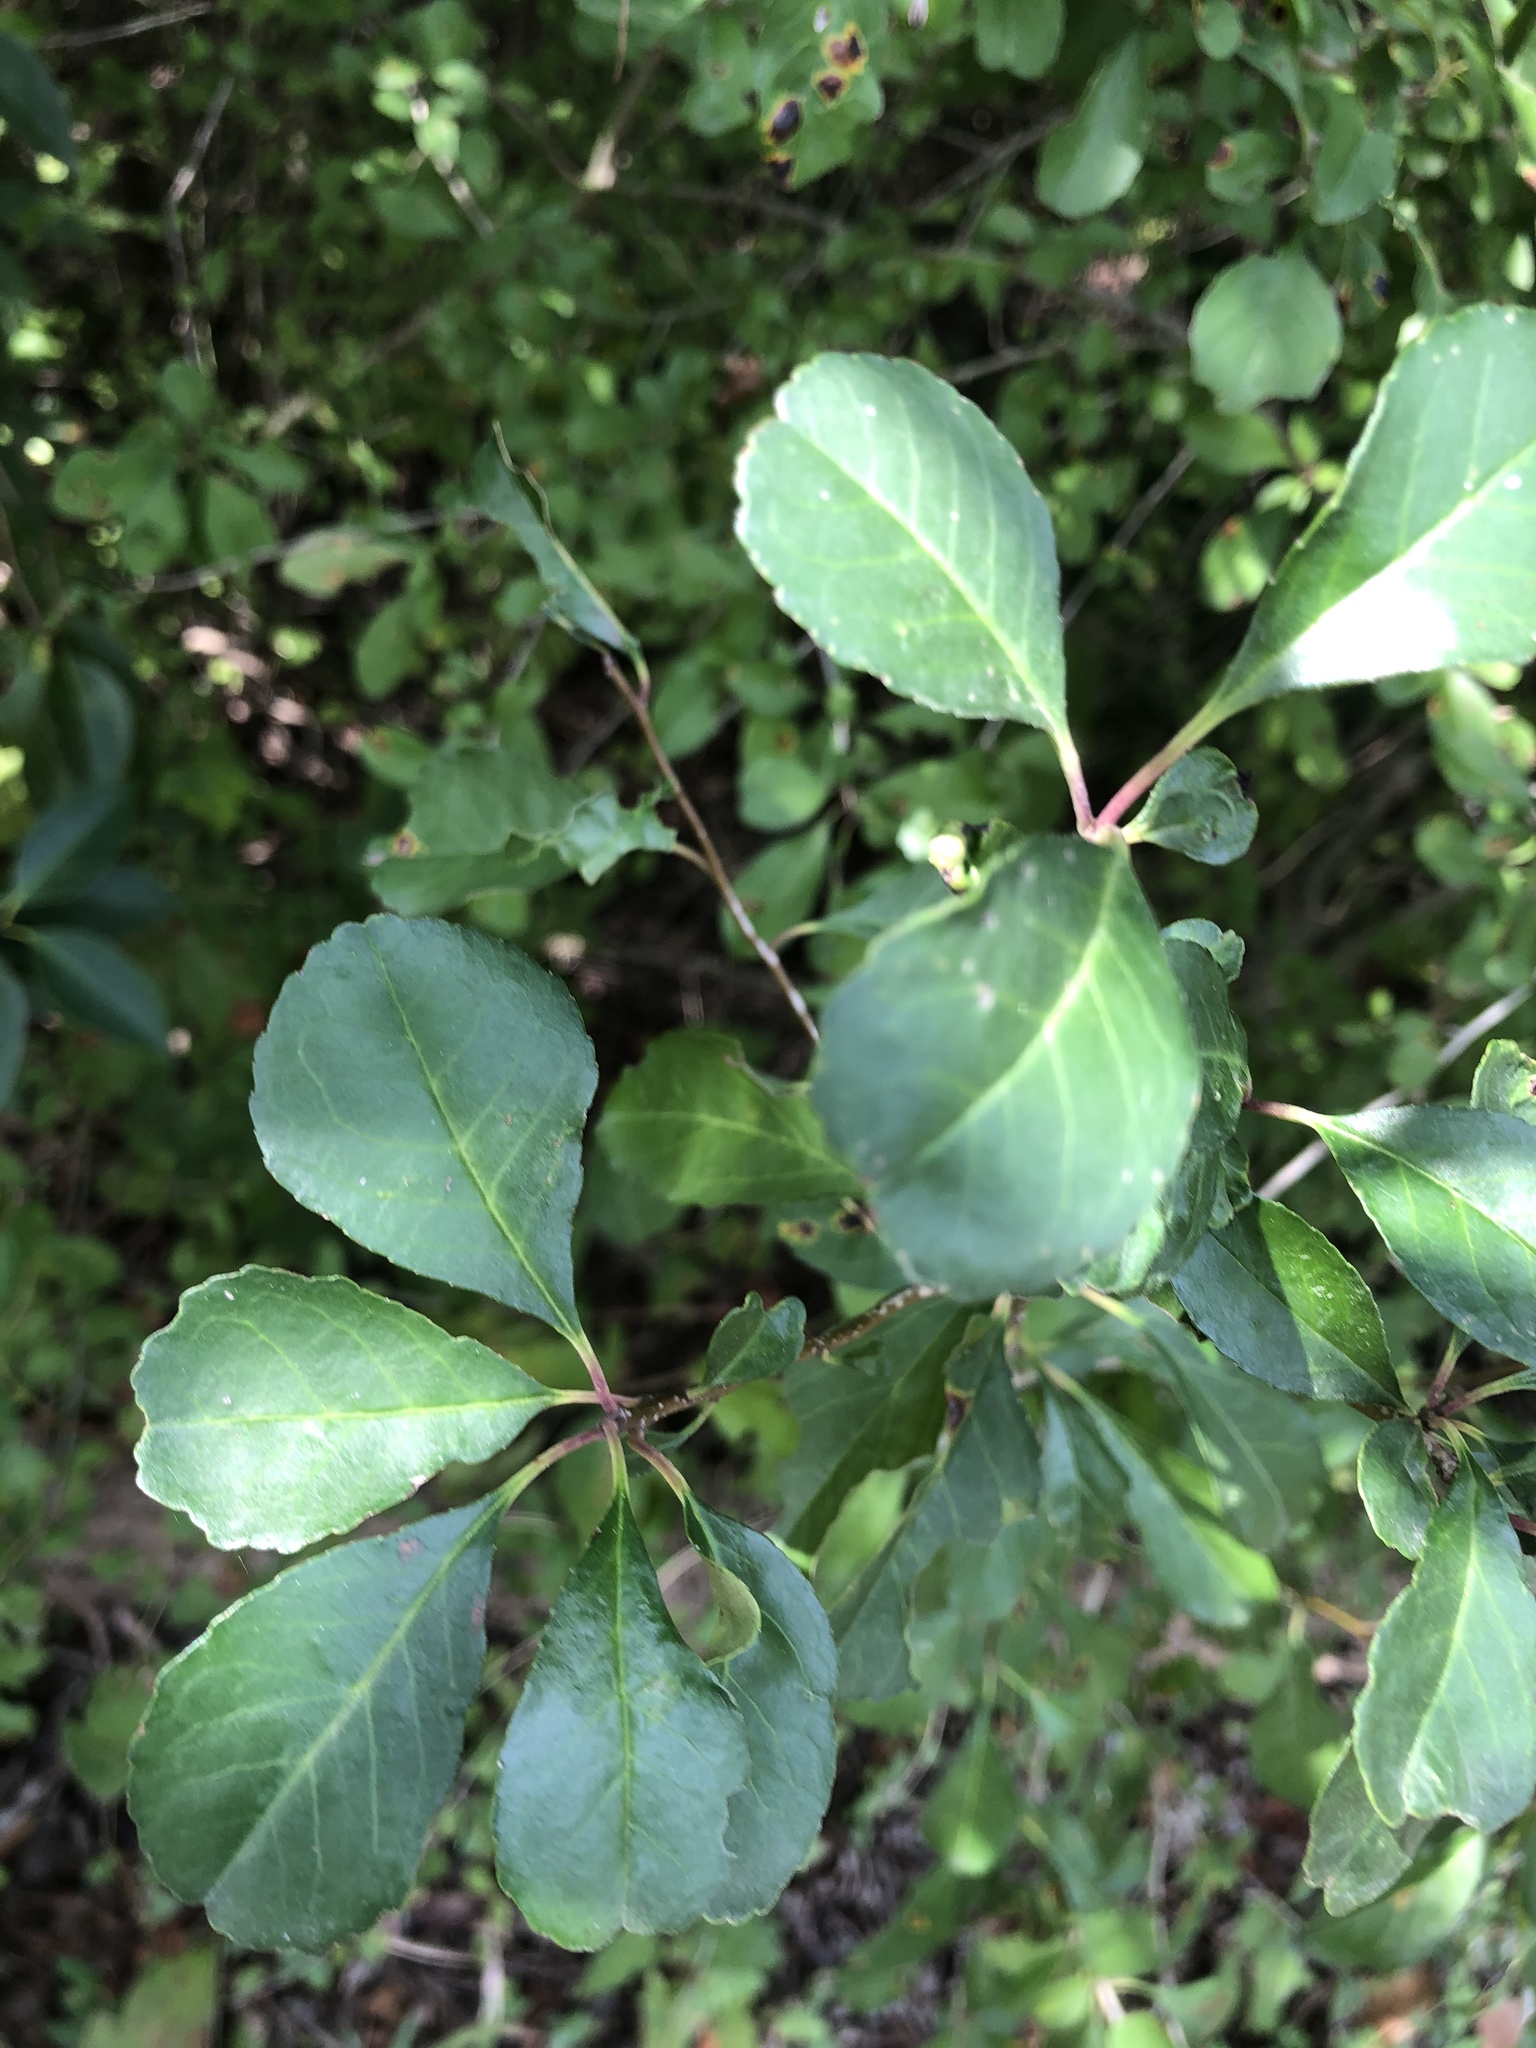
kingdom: Plantae
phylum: Tracheophyta
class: Magnoliopsida
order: Aquifoliales
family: Aquifoliaceae
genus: Ilex
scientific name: Ilex decidua
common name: Possum-haw
